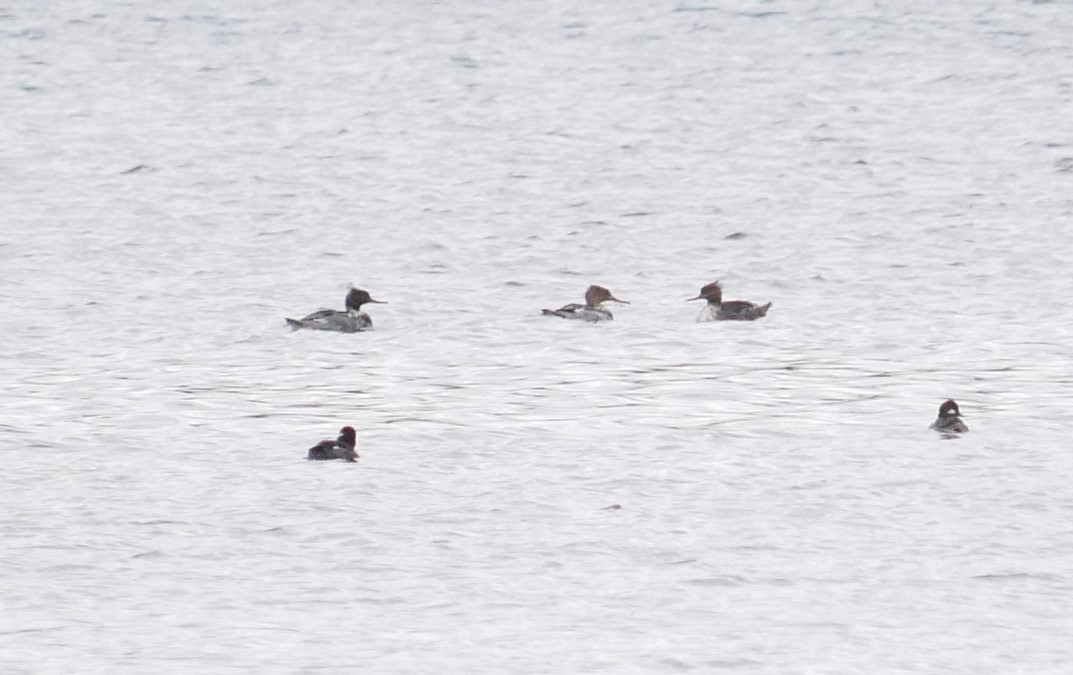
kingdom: Animalia
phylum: Chordata
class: Aves
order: Anseriformes
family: Anatidae
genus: Mergus
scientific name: Mergus serrator
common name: Red-breasted merganser
